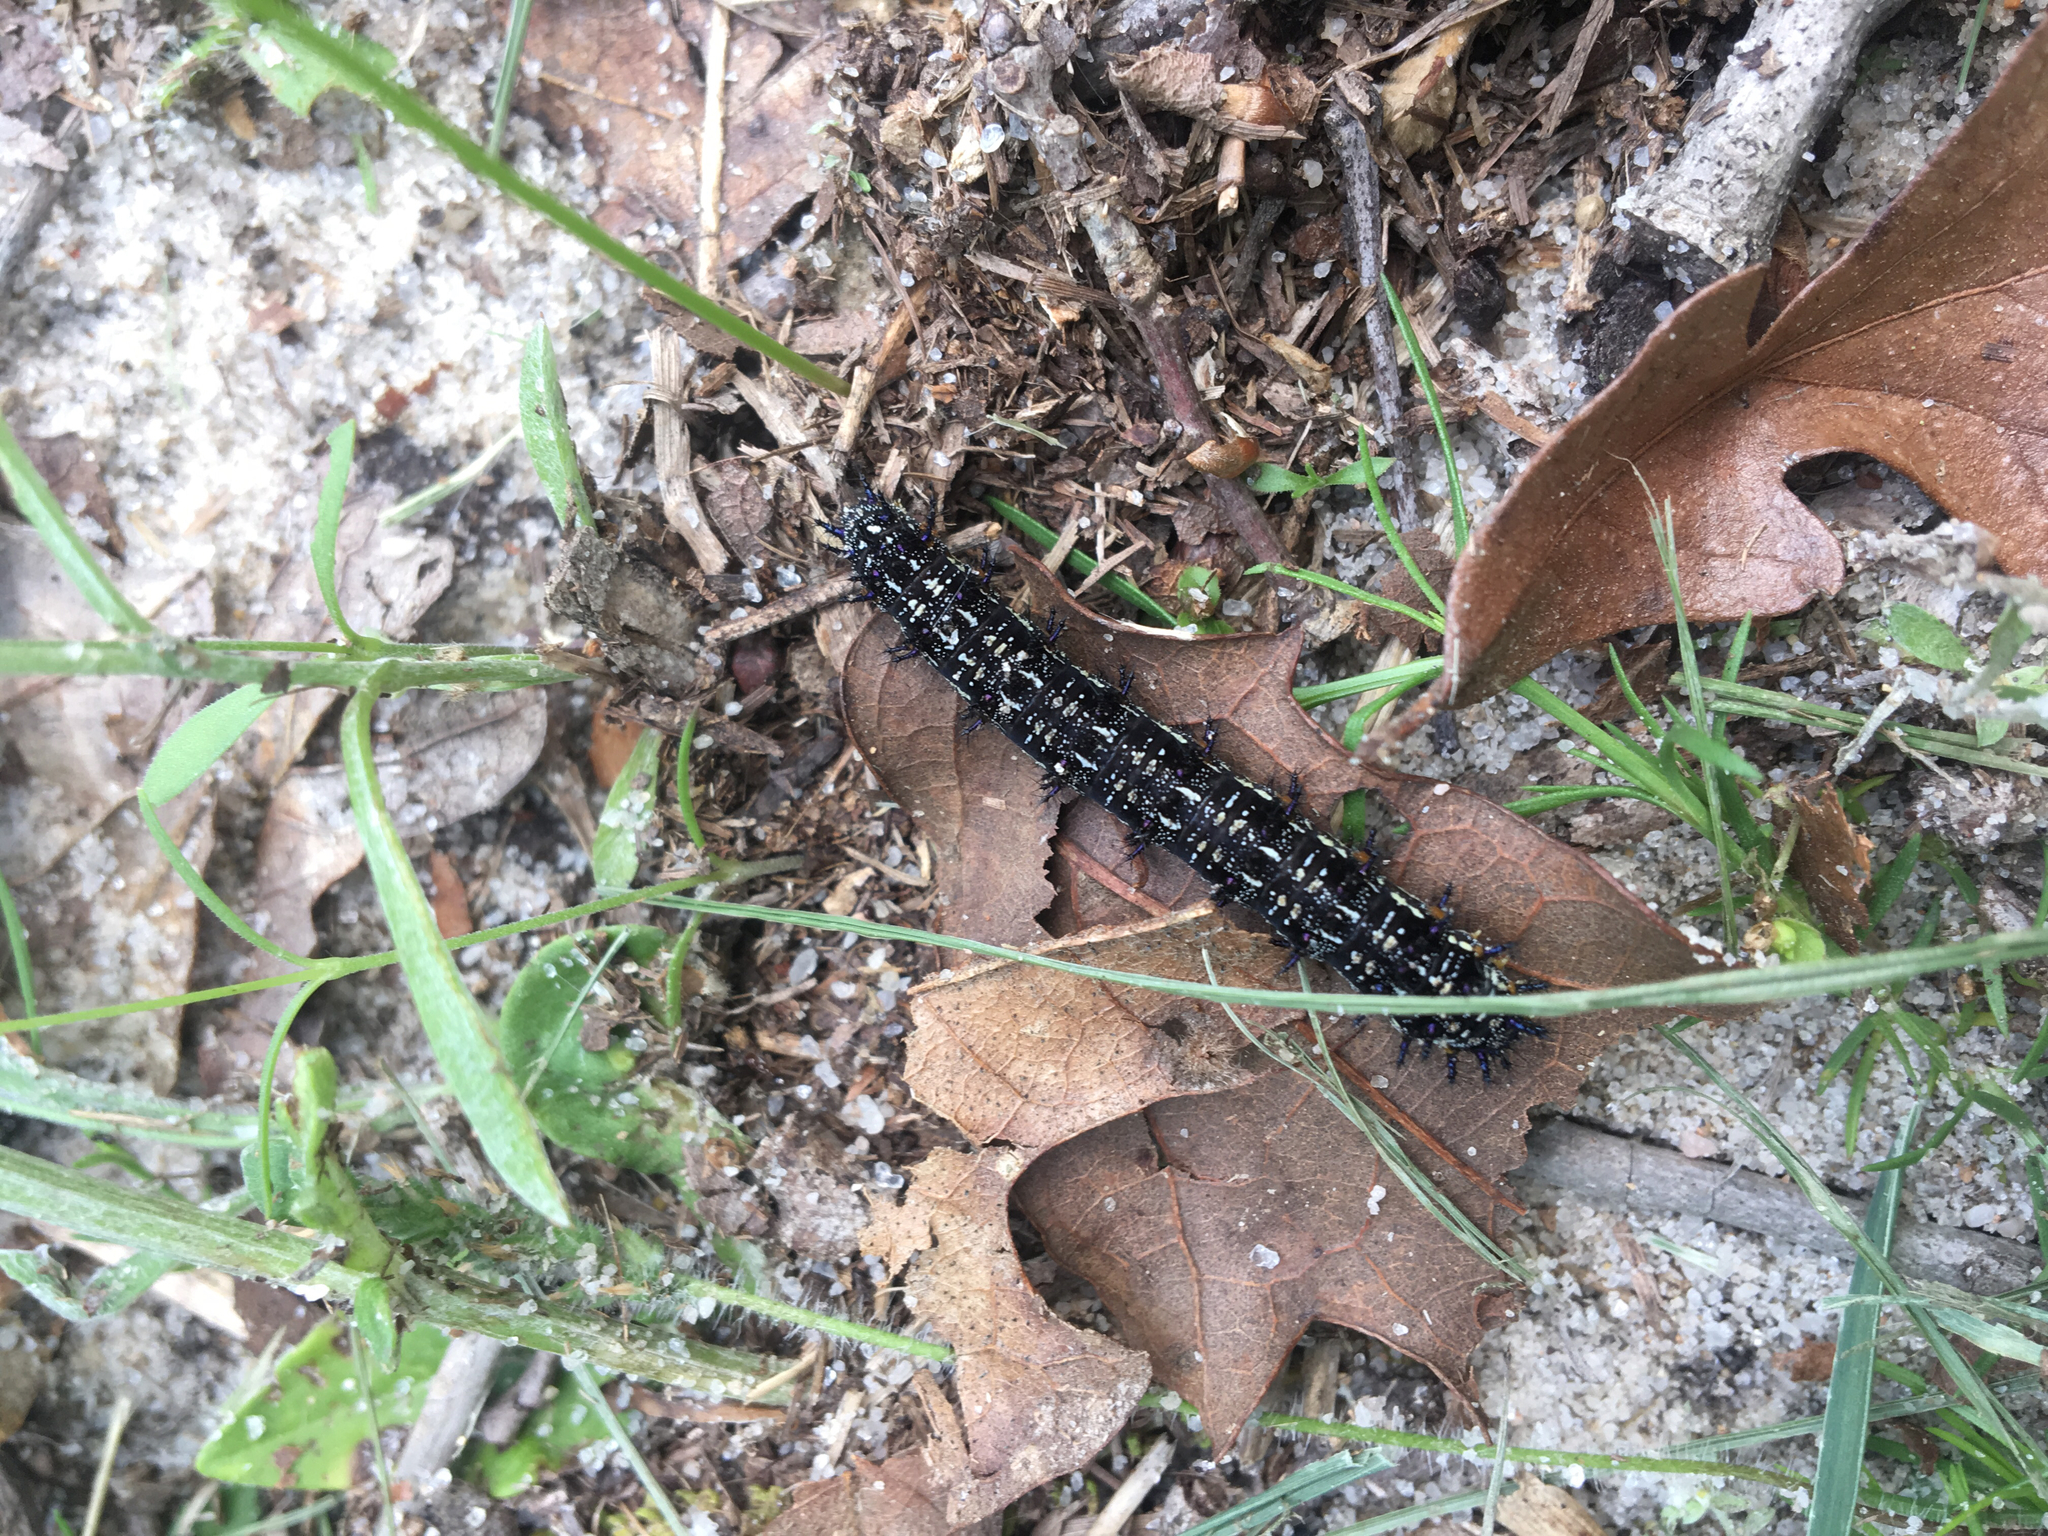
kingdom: Animalia
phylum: Arthropoda
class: Insecta
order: Lepidoptera
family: Nymphalidae
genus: Junonia
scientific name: Junonia coenia
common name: Common buckeye
